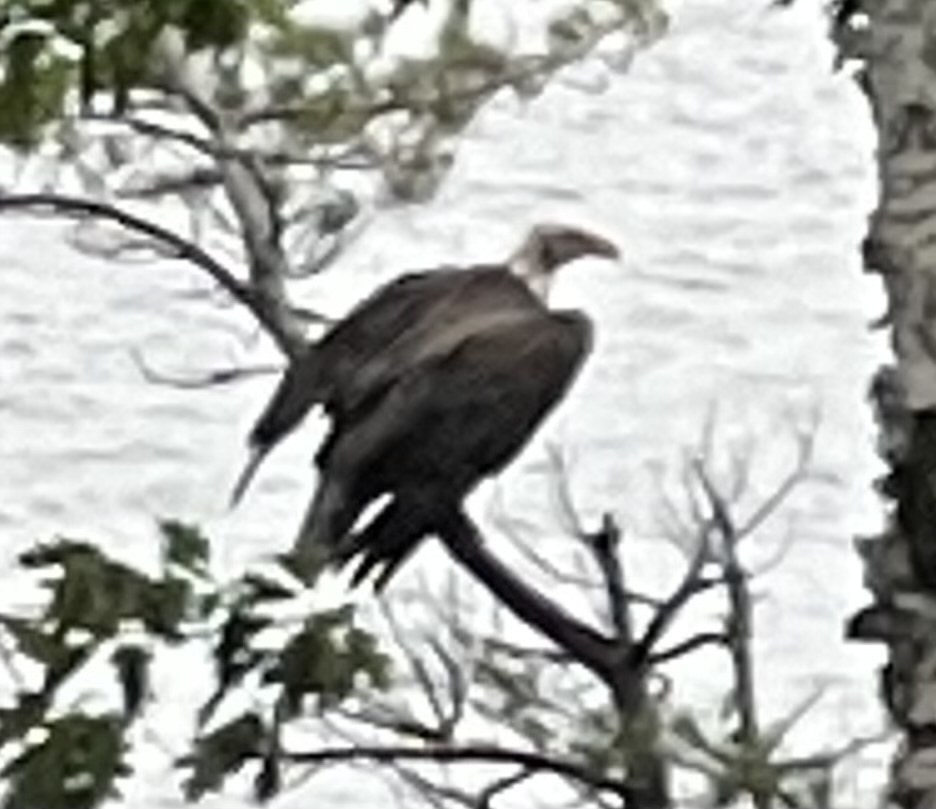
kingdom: Animalia
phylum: Chordata
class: Aves
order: Accipitriformes
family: Cathartidae
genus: Cathartes
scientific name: Cathartes aura
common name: Turkey vulture
